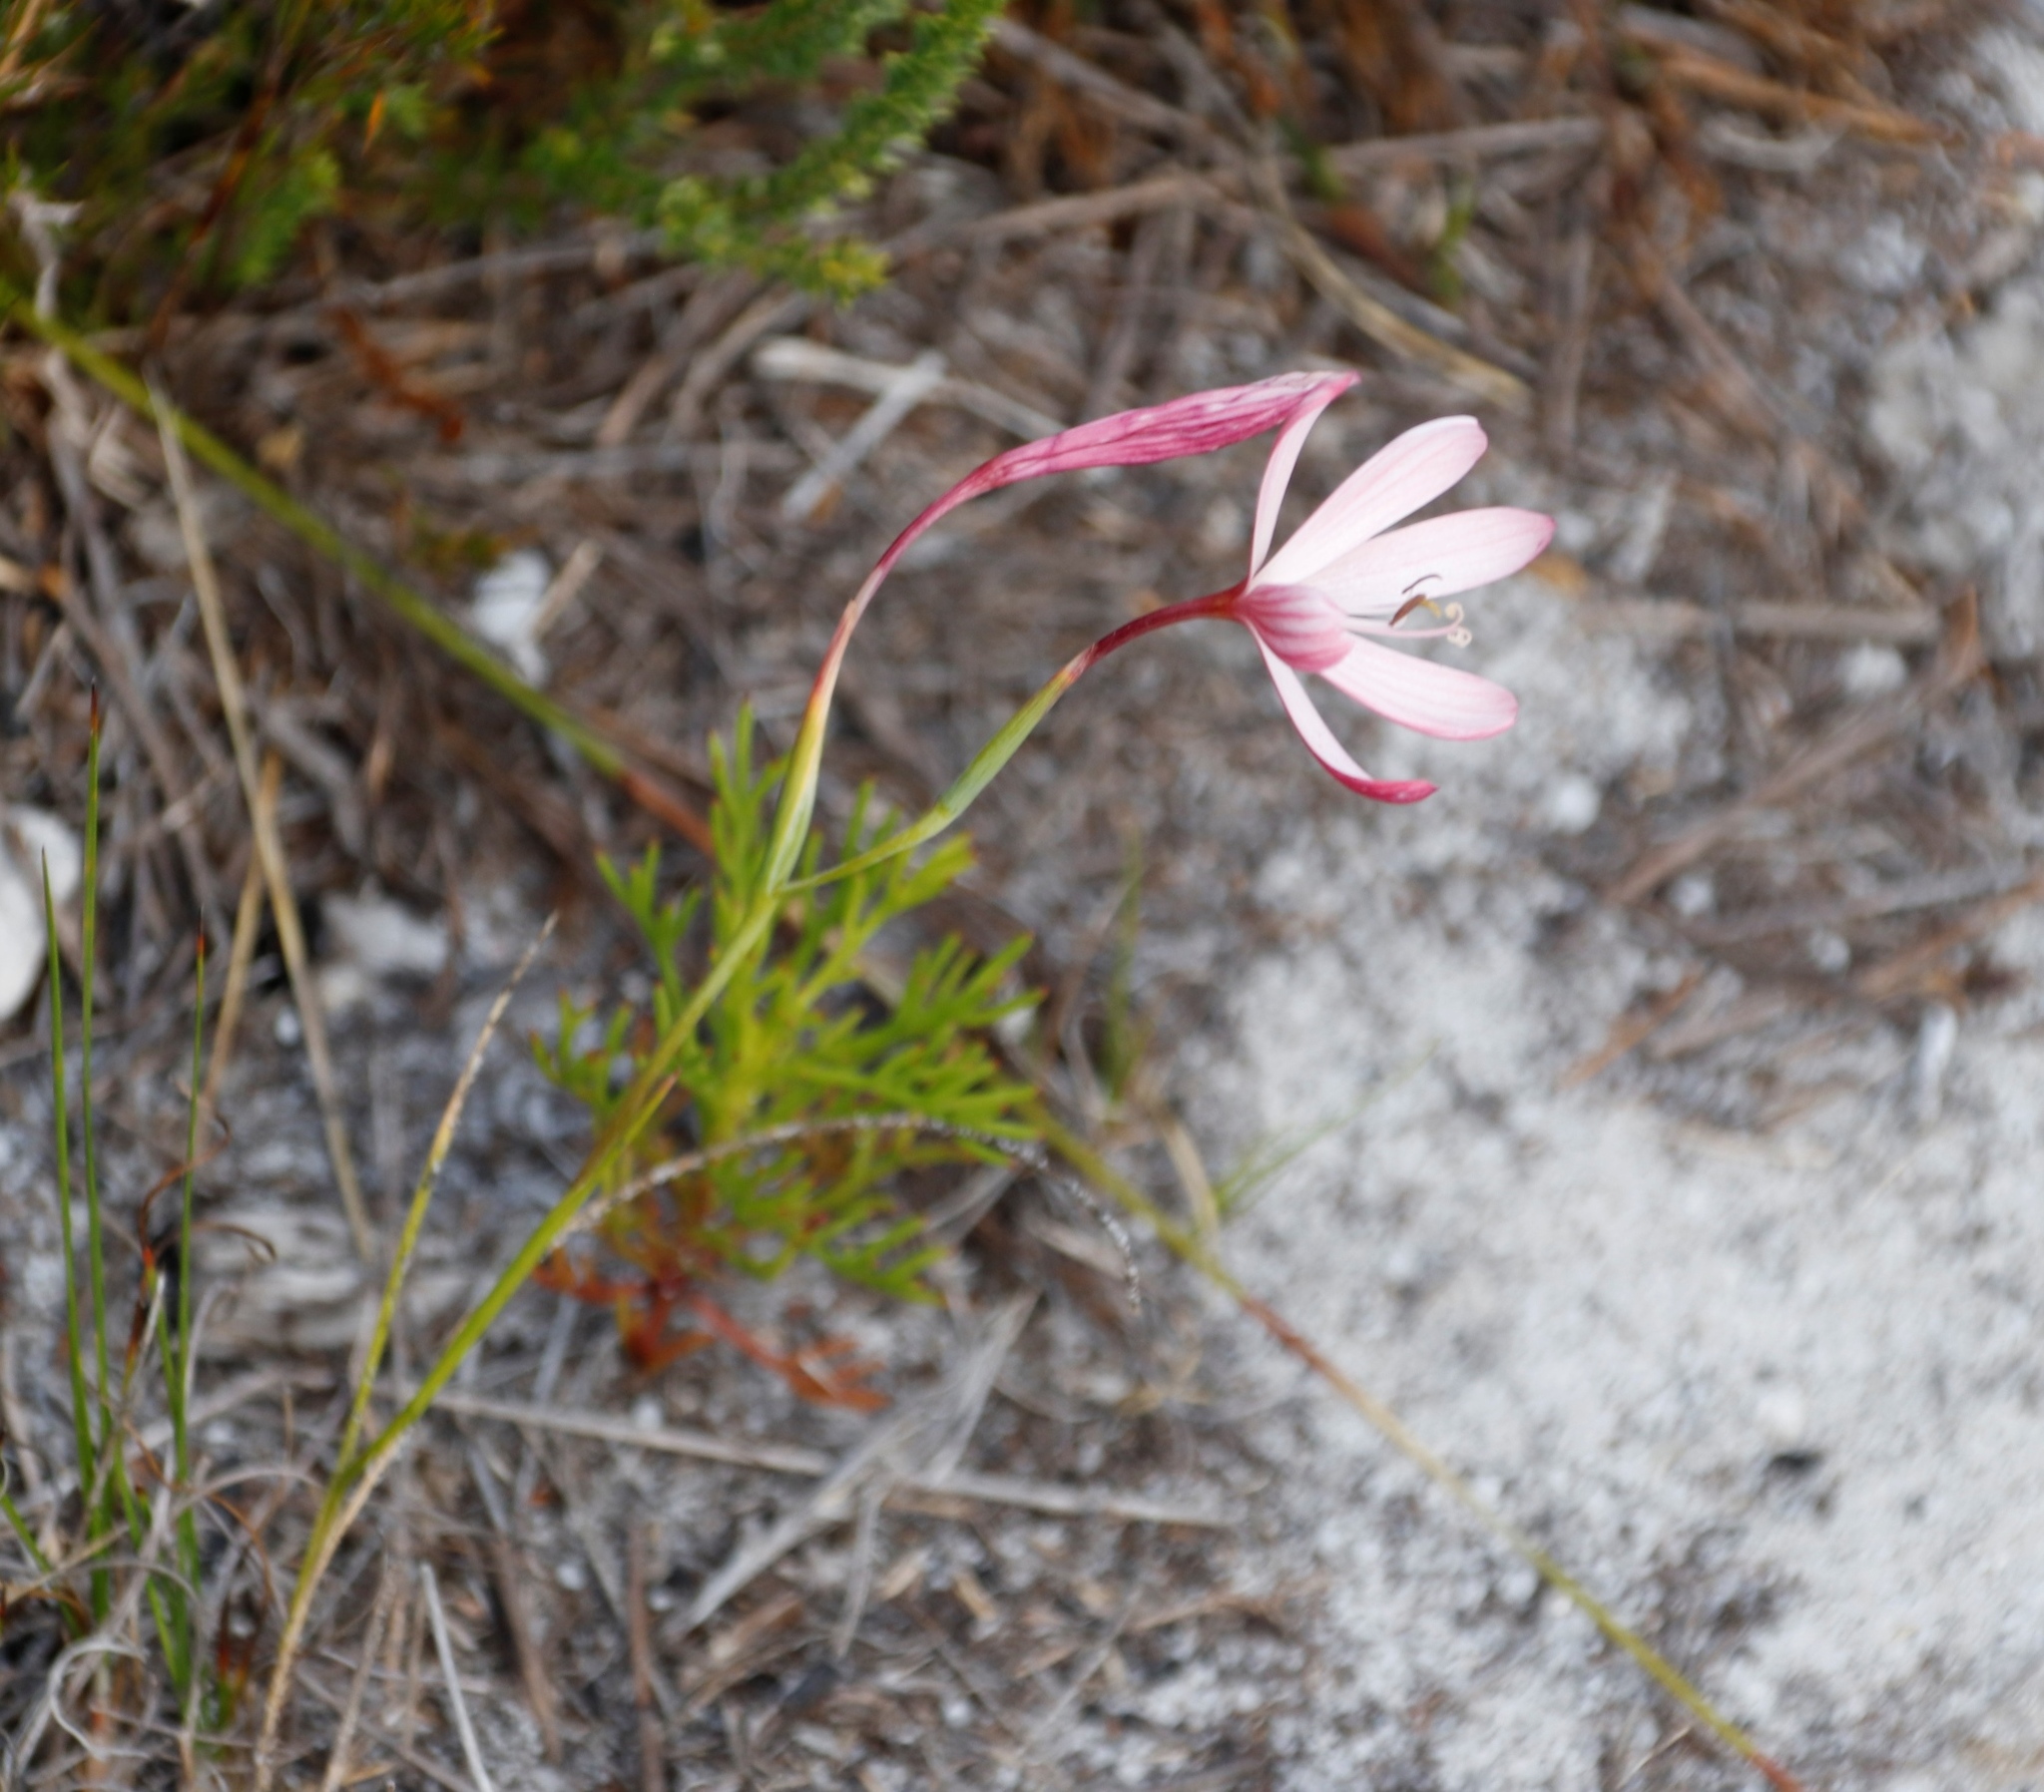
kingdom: Plantae
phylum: Tracheophyta
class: Liliopsida
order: Asparagales
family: Iridaceae
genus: Geissorhiza
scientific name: Geissorhiza bonae-spei
